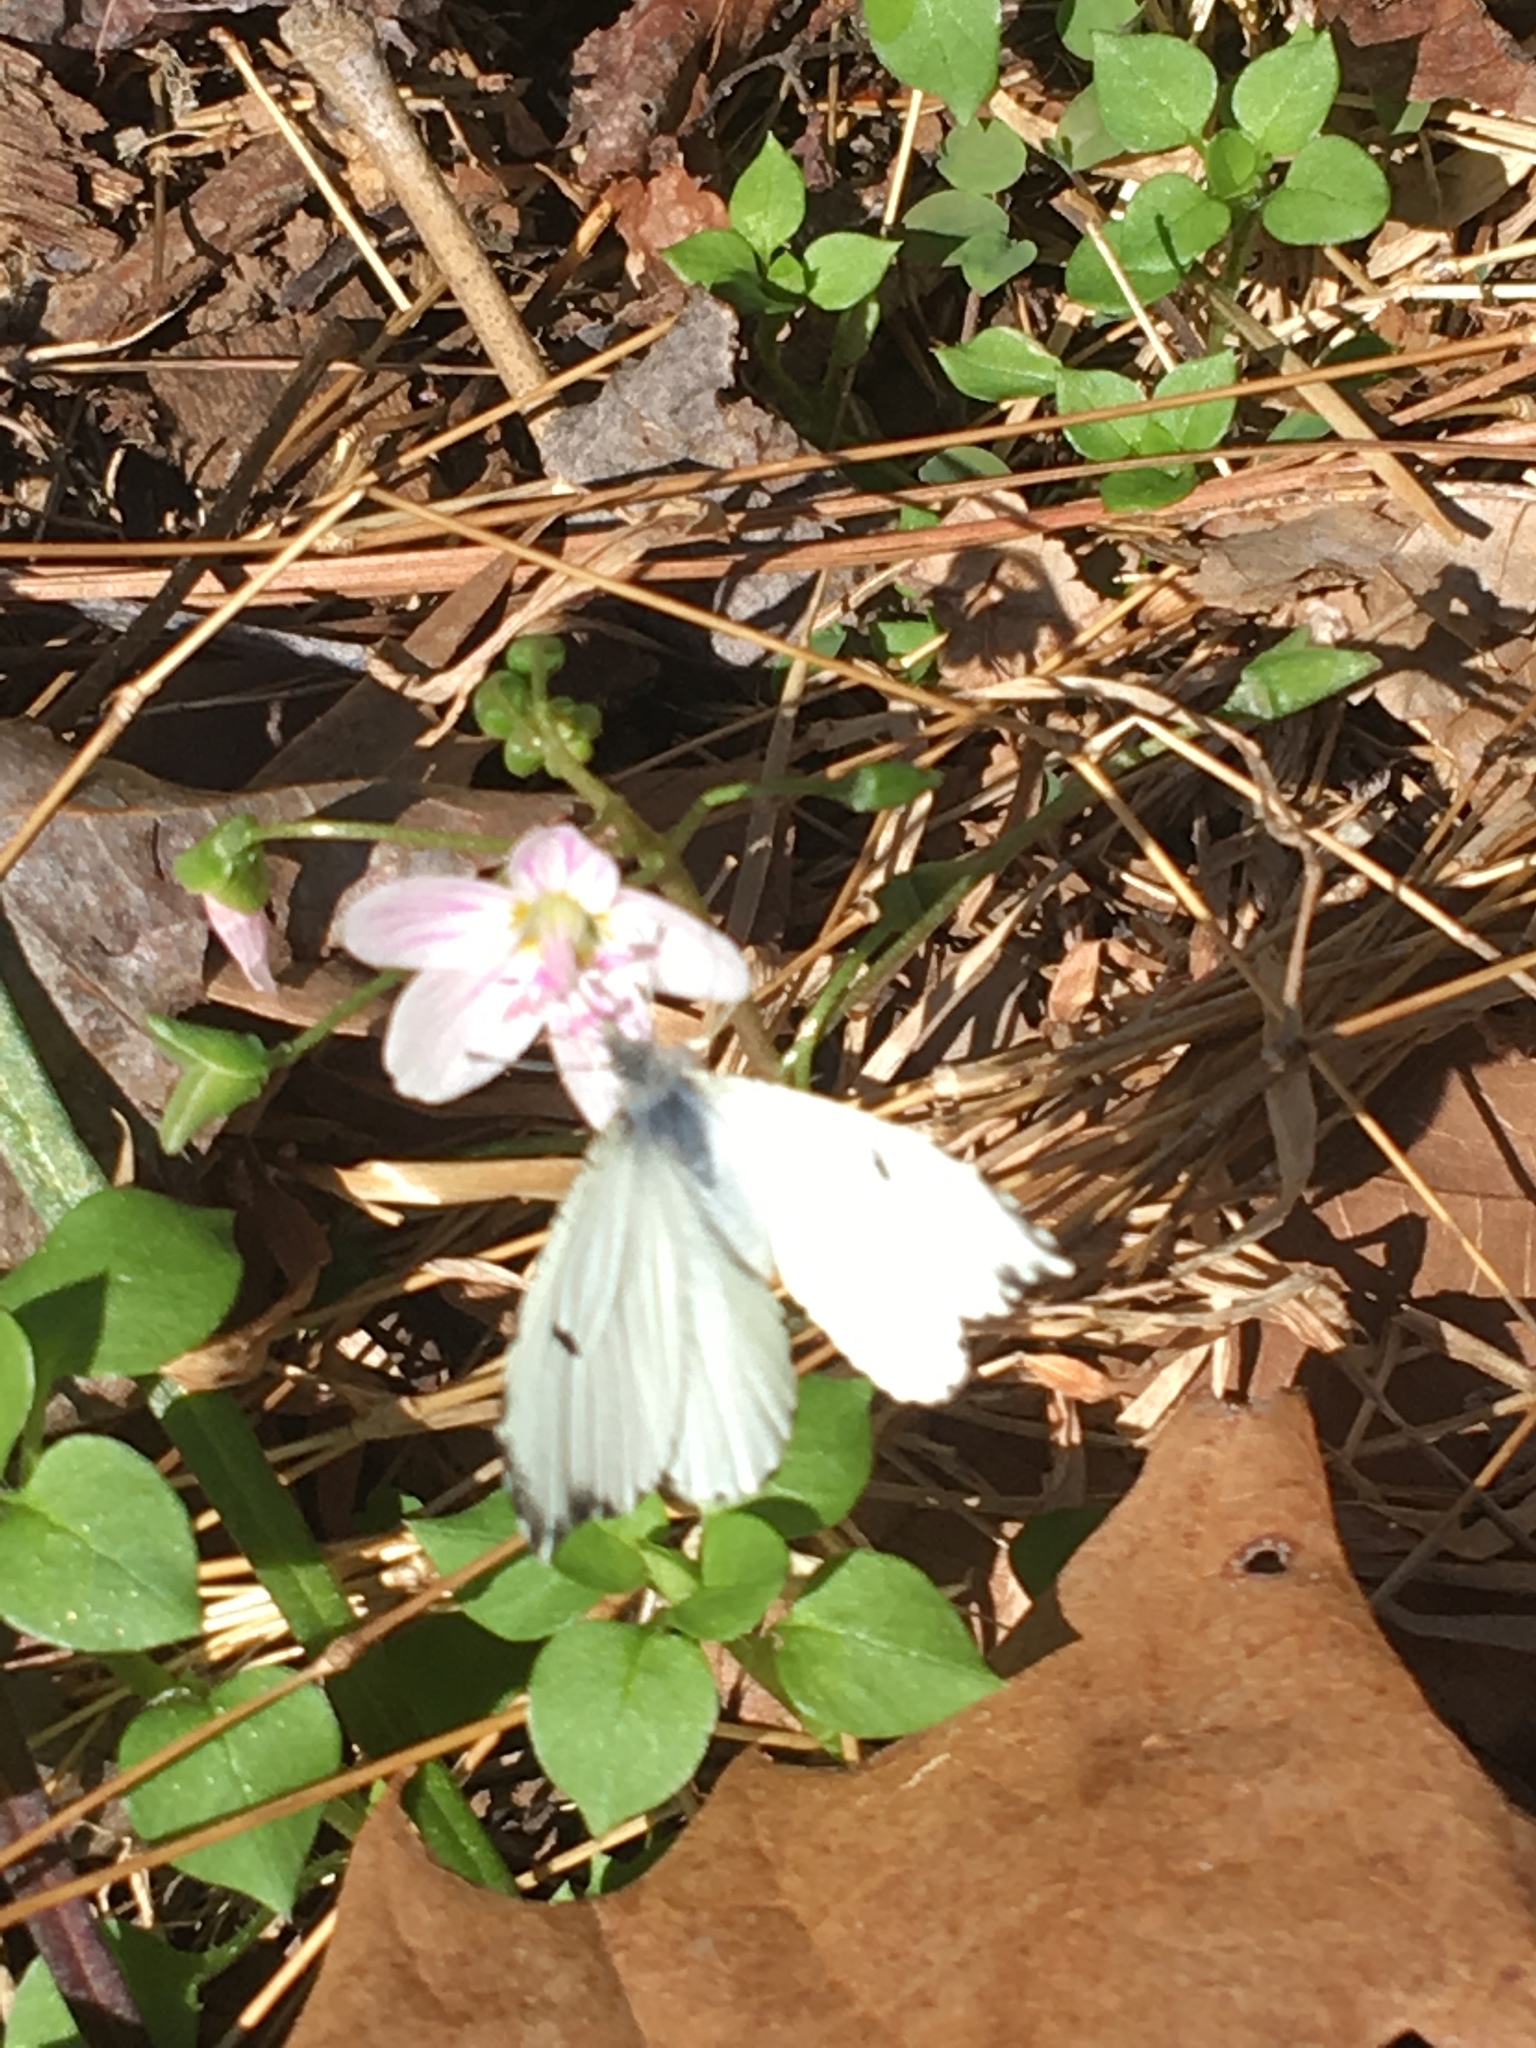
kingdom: Animalia
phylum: Arthropoda
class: Insecta
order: Lepidoptera
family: Pieridae
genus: Anthocharis
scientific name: Anthocharis midea
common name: Falcate orangetip
